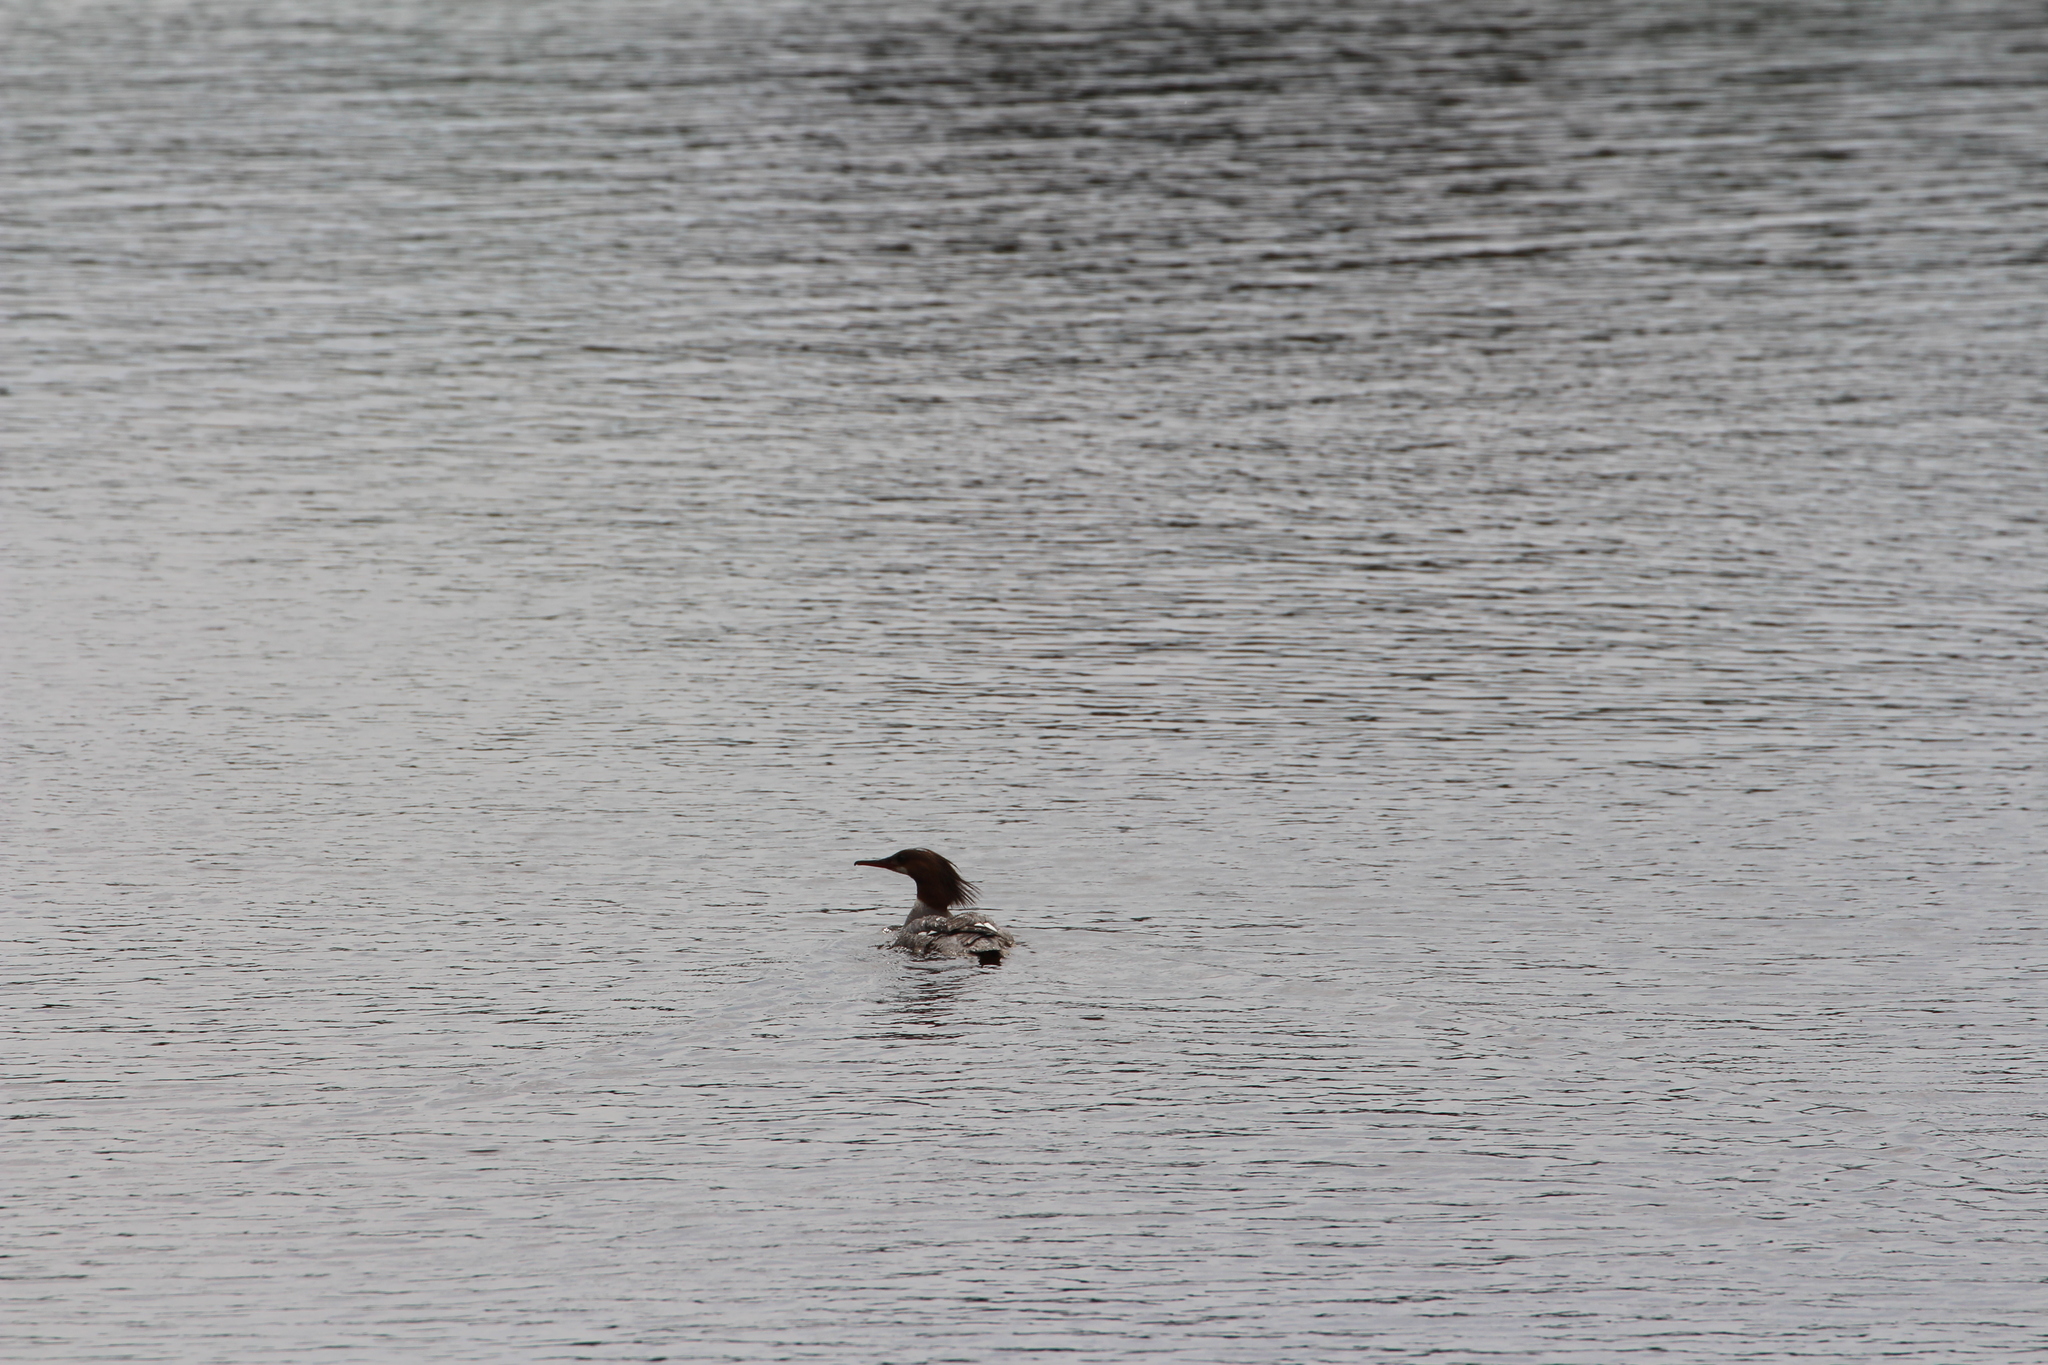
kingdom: Animalia
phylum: Chordata
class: Aves
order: Anseriformes
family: Anatidae
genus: Mergus
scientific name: Mergus merganser
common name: Common merganser
